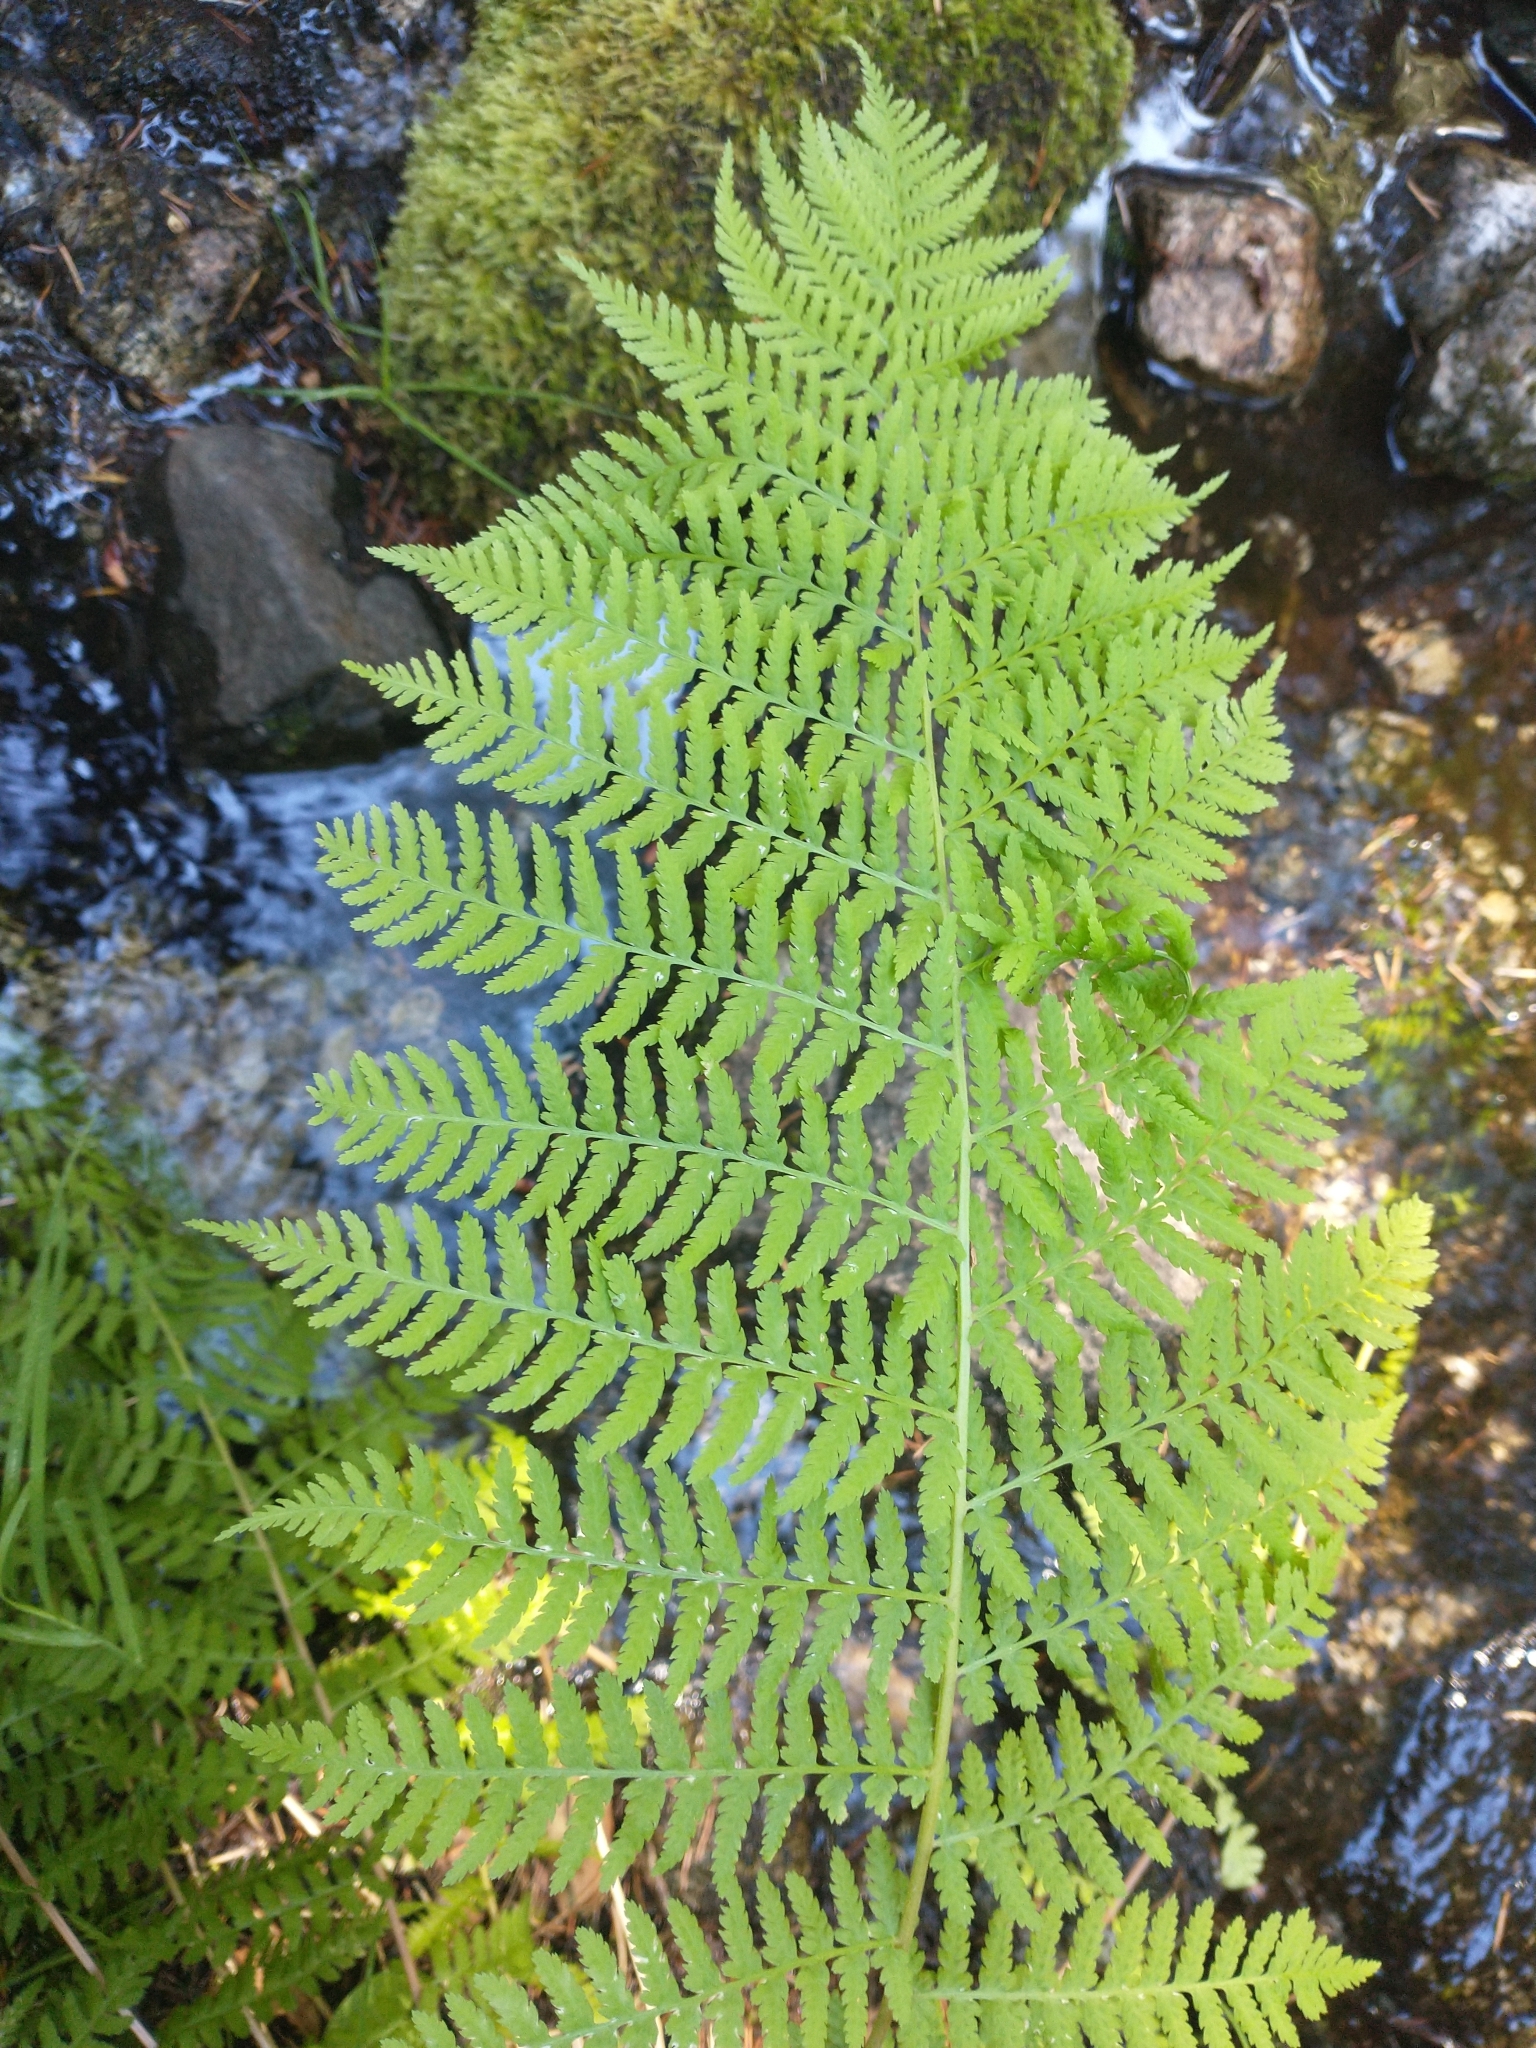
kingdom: Plantae
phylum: Tracheophyta
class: Polypodiopsida
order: Polypodiales
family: Athyriaceae
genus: Athyrium
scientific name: Athyrium filix-femina
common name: Lady fern
